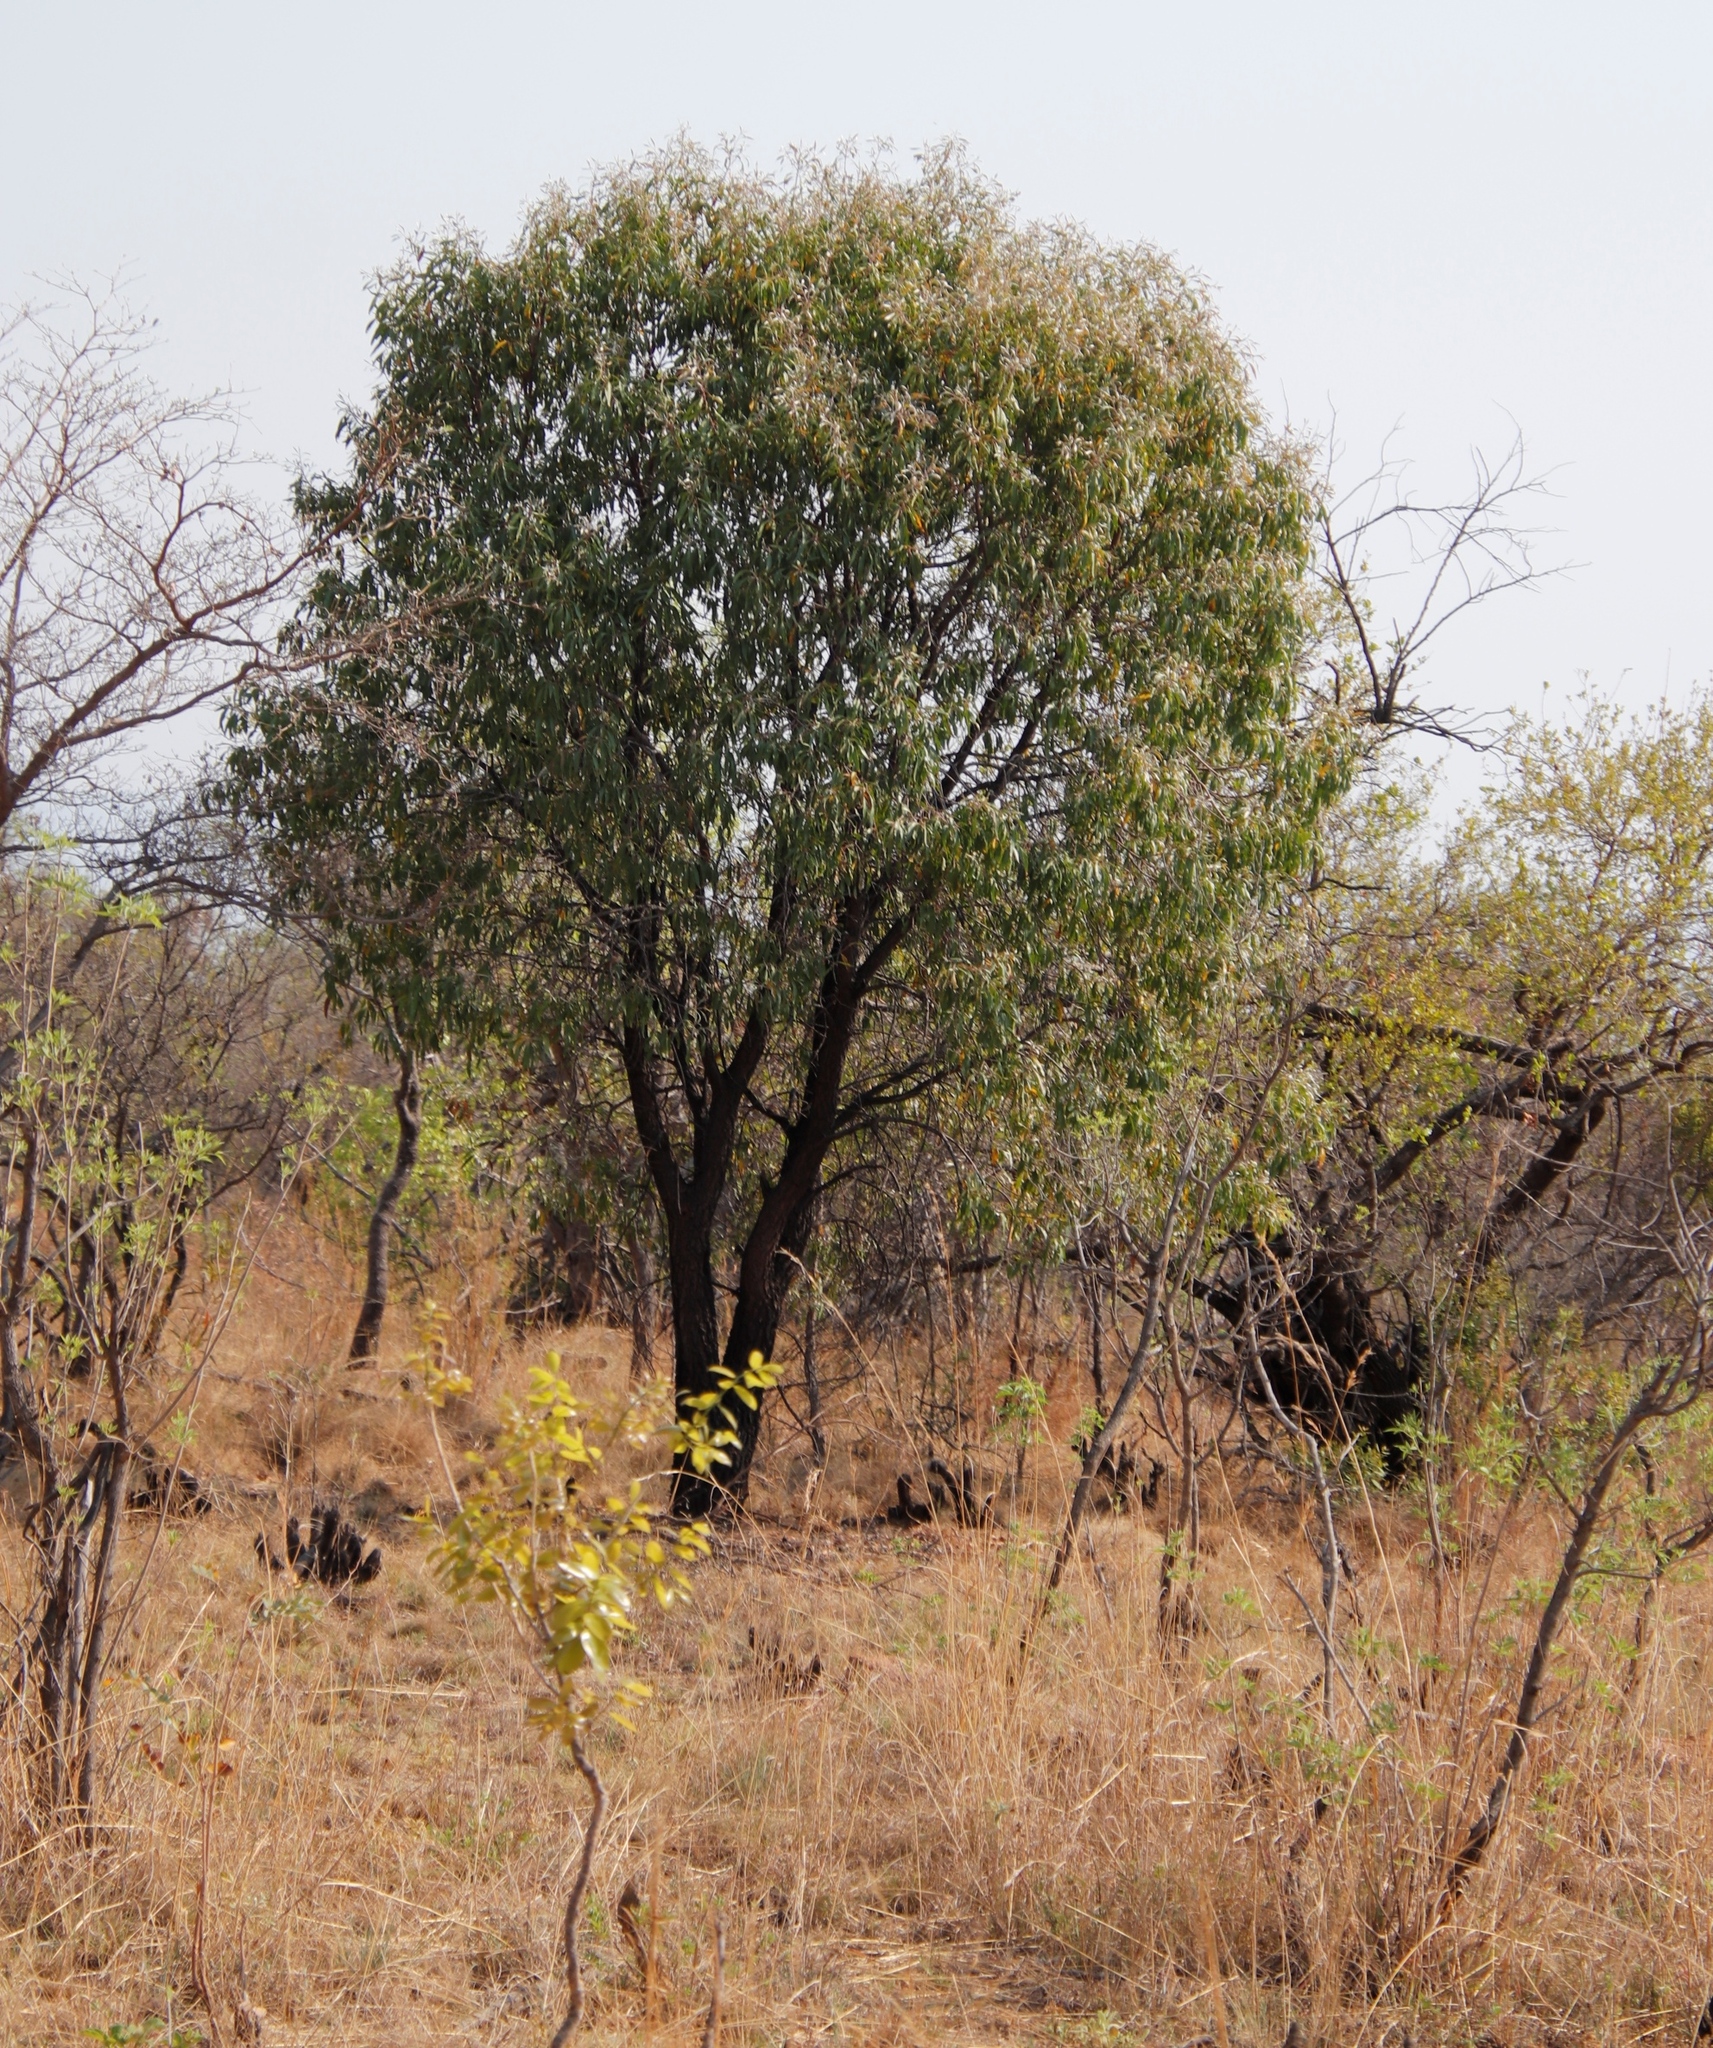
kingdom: Plantae
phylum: Tracheophyta
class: Magnoliopsida
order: Proteales
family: Proteaceae
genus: Faurea
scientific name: Faurea saligna
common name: African bean
